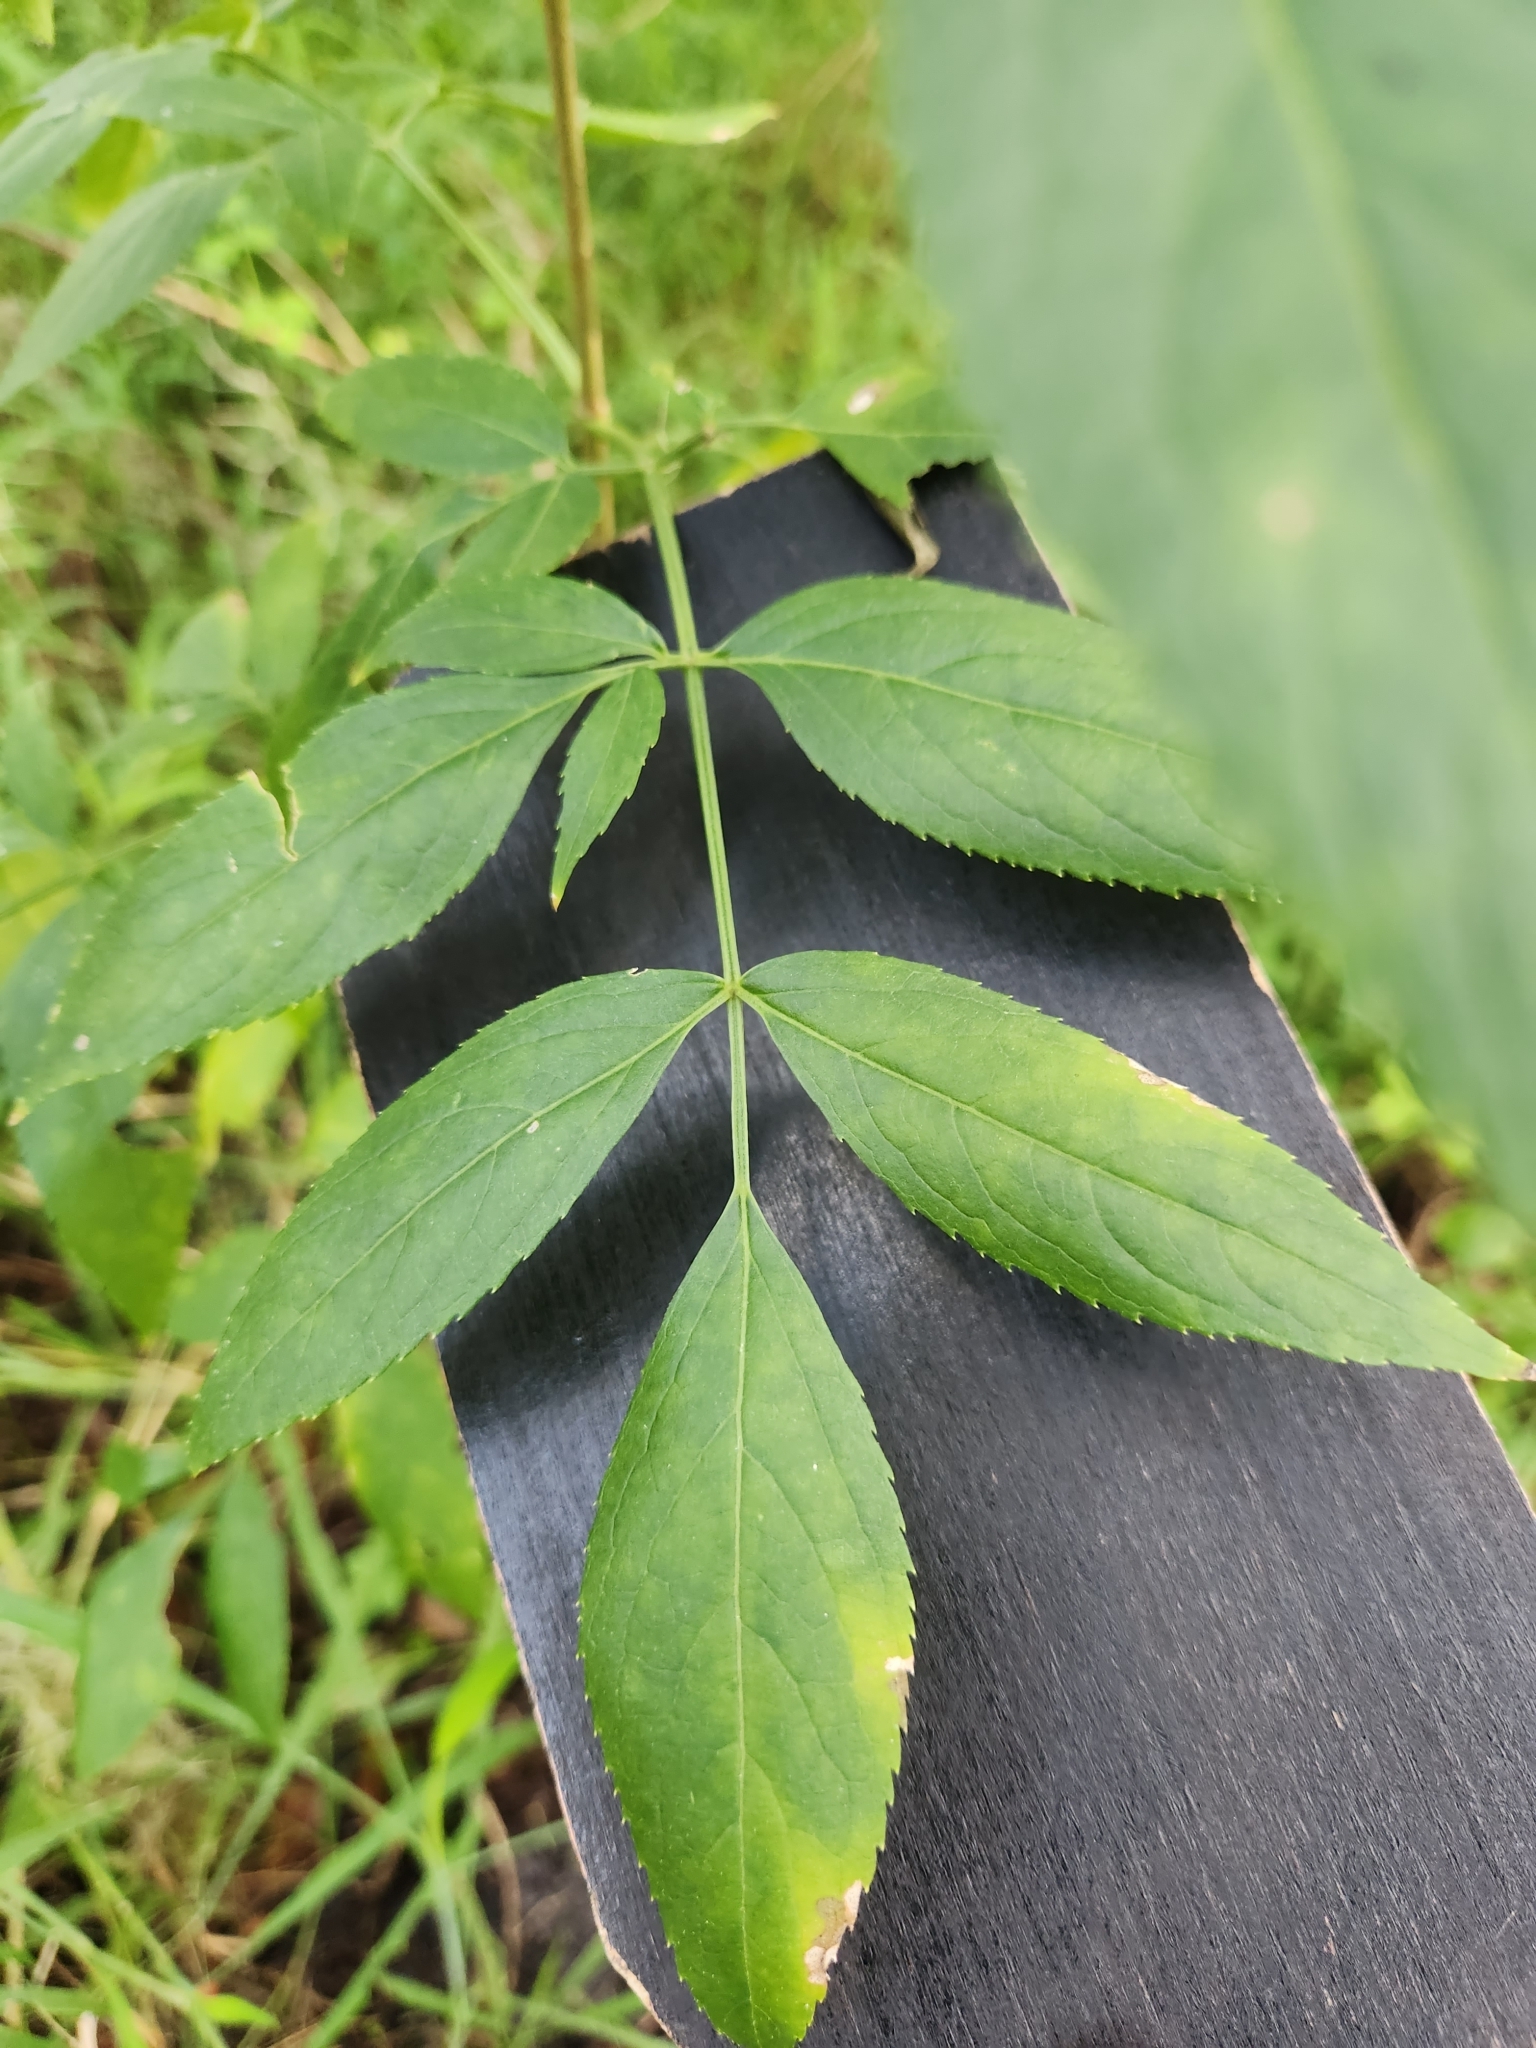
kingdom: Plantae
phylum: Tracheophyta
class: Magnoliopsida
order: Dipsacales
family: Viburnaceae
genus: Sambucus
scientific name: Sambucus canadensis
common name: American elder
